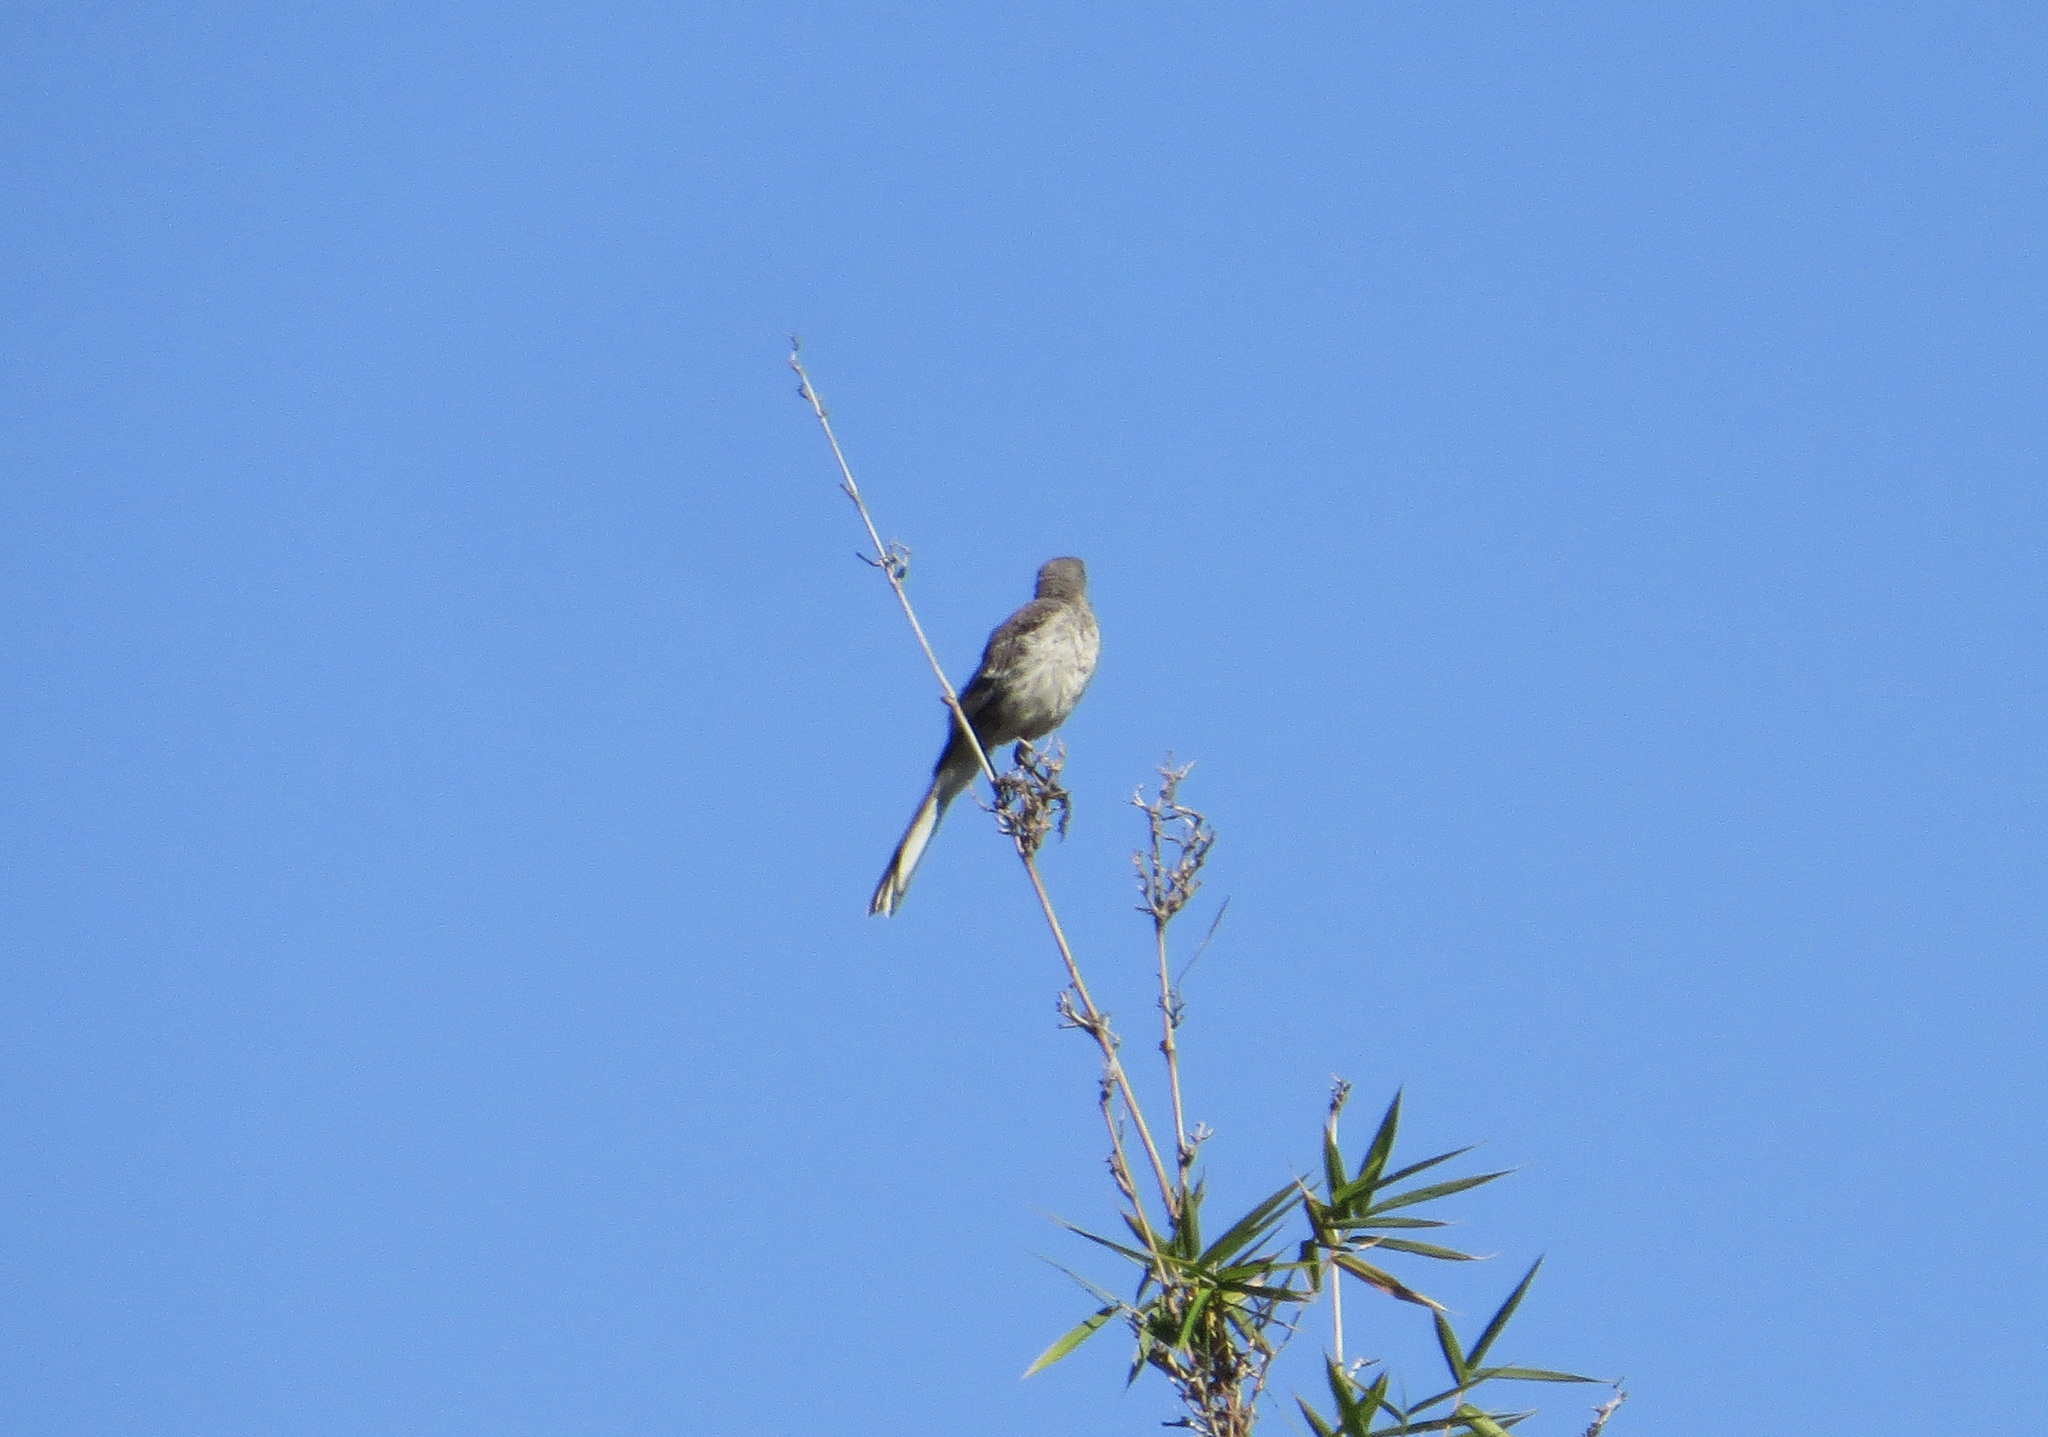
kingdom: Animalia
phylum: Chordata
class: Aves
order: Passeriformes
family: Mimidae
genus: Mimus
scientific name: Mimus polyglottos
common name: Northern mockingbird
